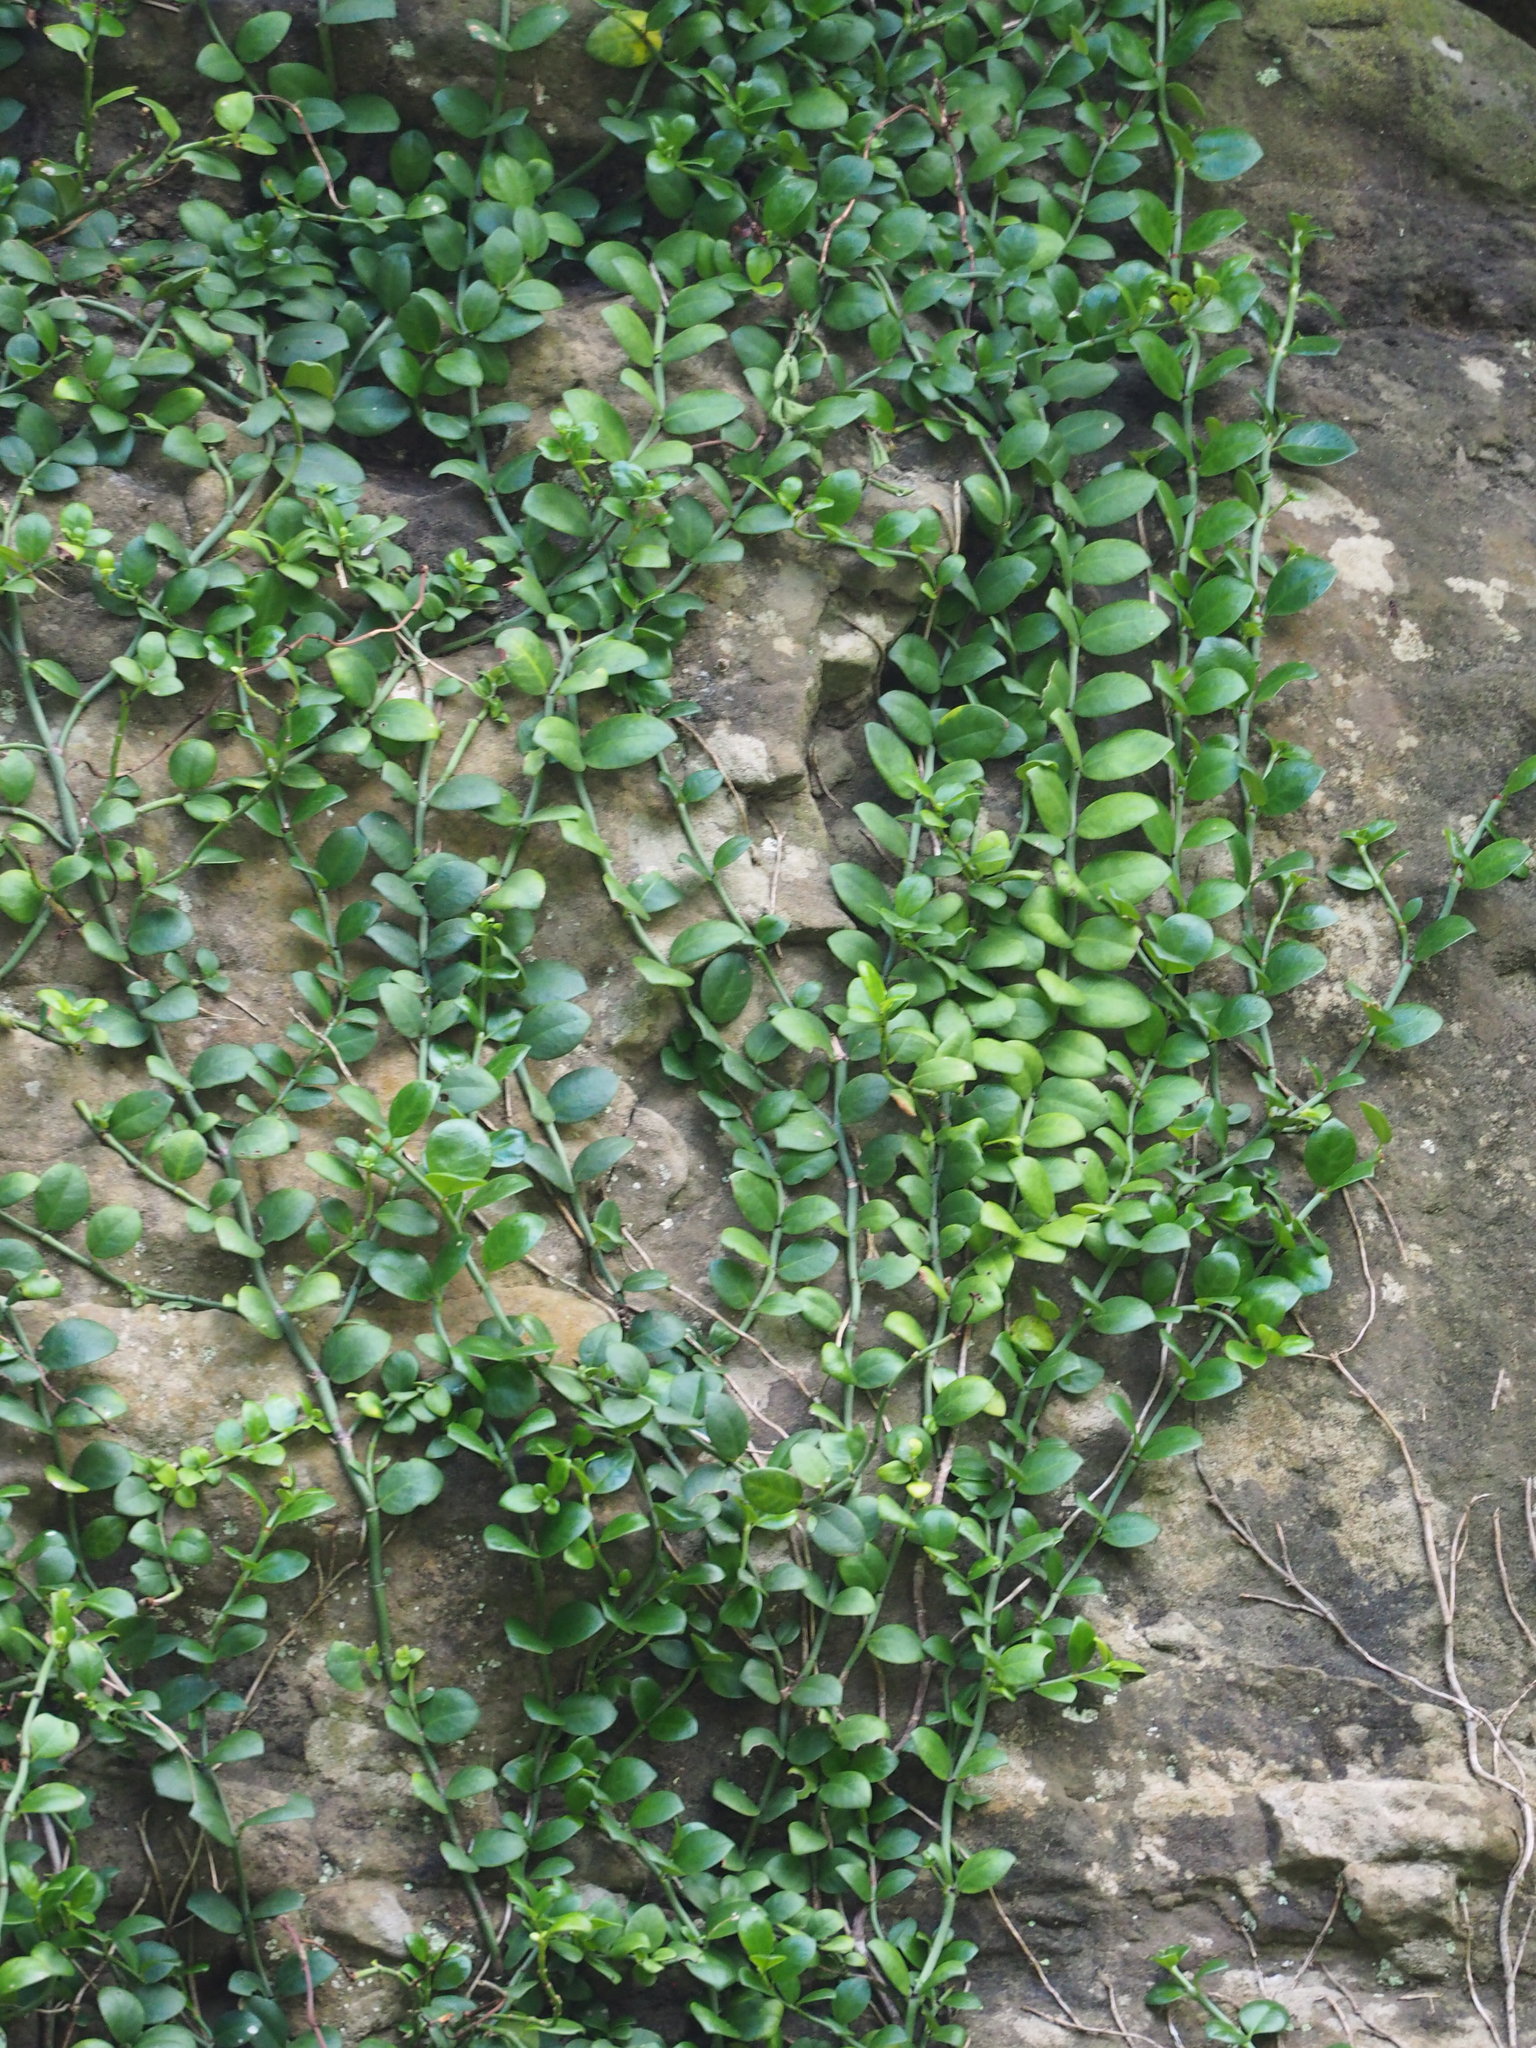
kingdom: Plantae
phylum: Tracheophyta
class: Magnoliopsida
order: Gentianales
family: Rubiaceae
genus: Psychotria
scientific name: Psychotria serpens
